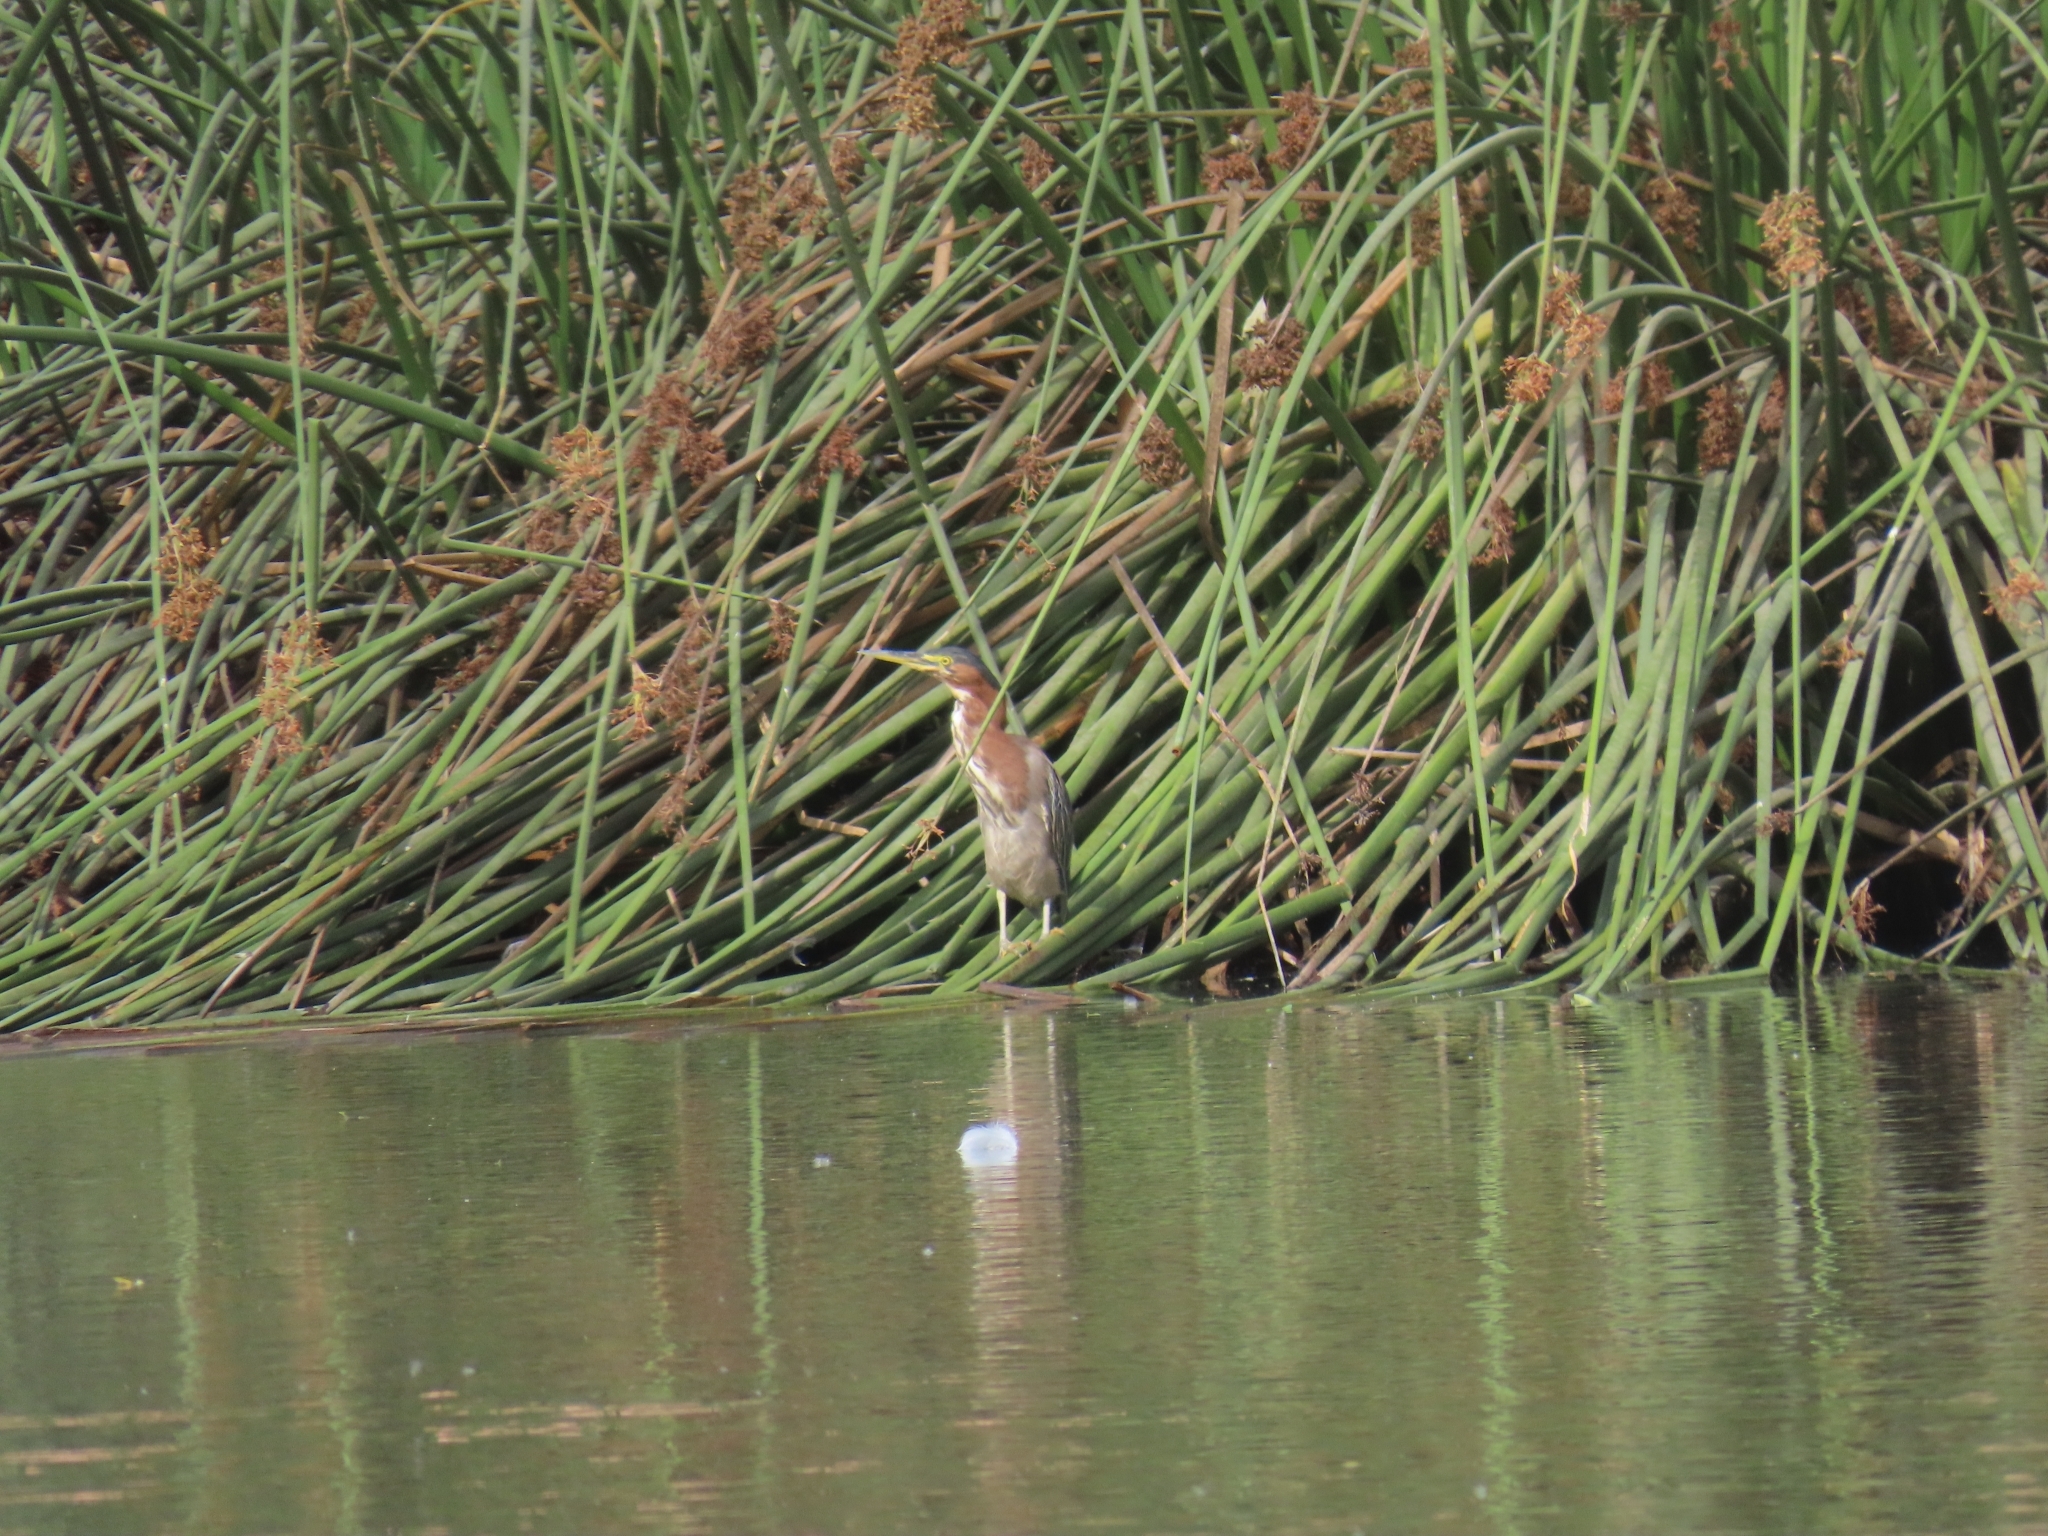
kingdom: Animalia
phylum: Chordata
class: Aves
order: Pelecaniformes
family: Ardeidae
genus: Butorides
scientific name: Butorides virescens
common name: Green heron
